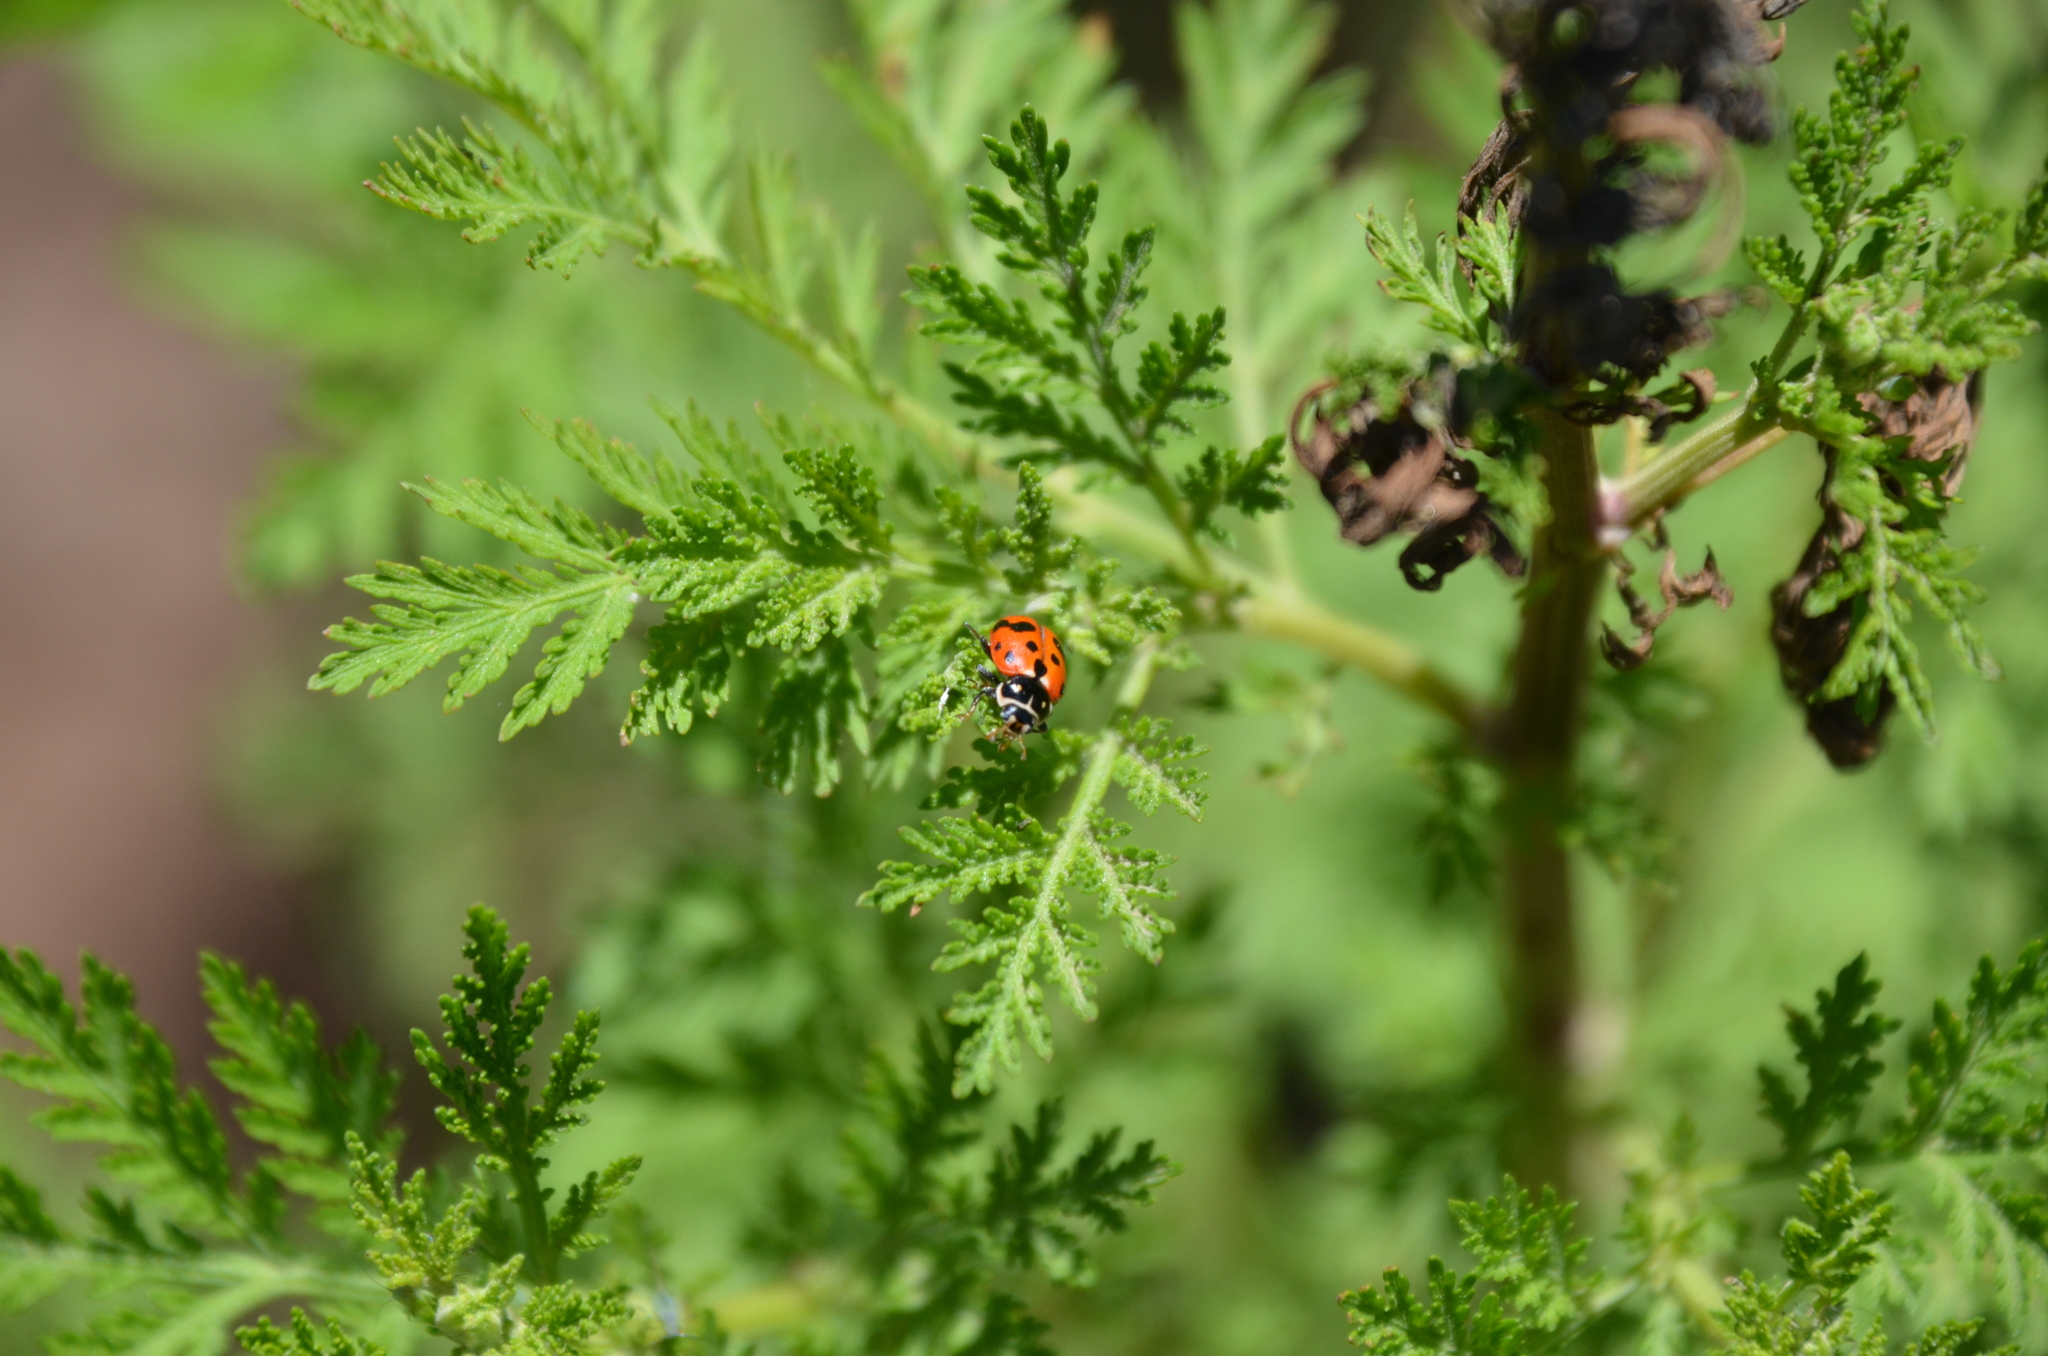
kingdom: Animalia
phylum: Arthropoda
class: Insecta
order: Coleoptera
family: Coccinellidae
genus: Hippodamia
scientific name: Hippodamia variegata
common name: Ladybird beetle
